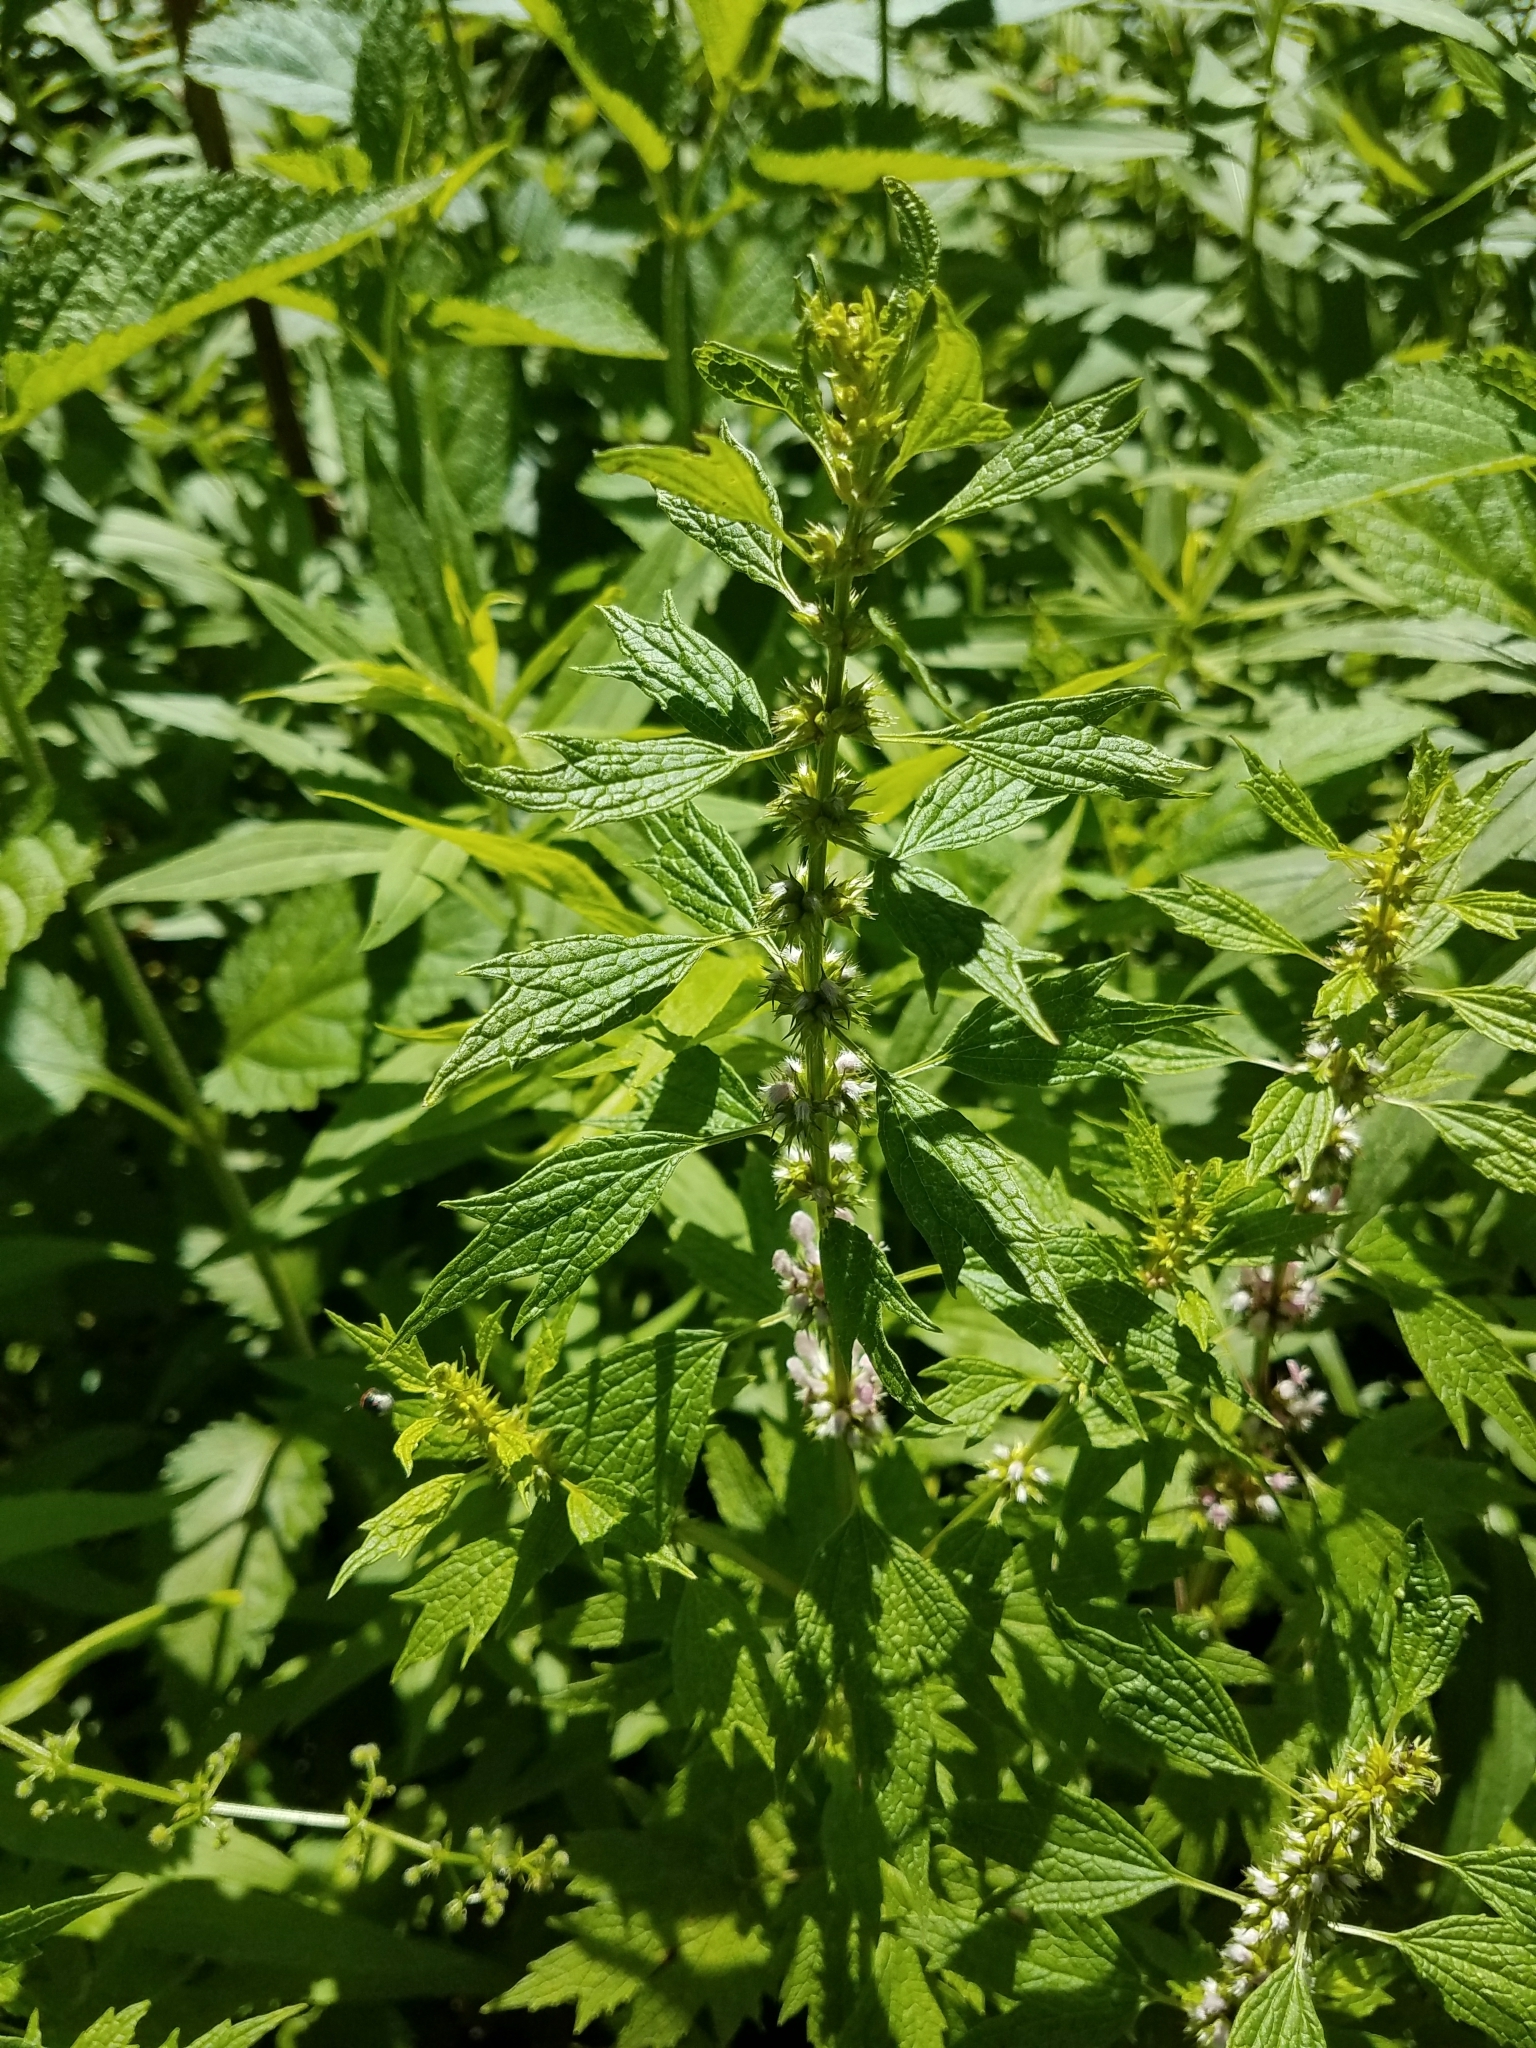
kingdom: Plantae
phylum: Tracheophyta
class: Magnoliopsida
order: Lamiales
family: Lamiaceae
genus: Leonurus
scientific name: Leonurus cardiaca
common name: Motherwort
